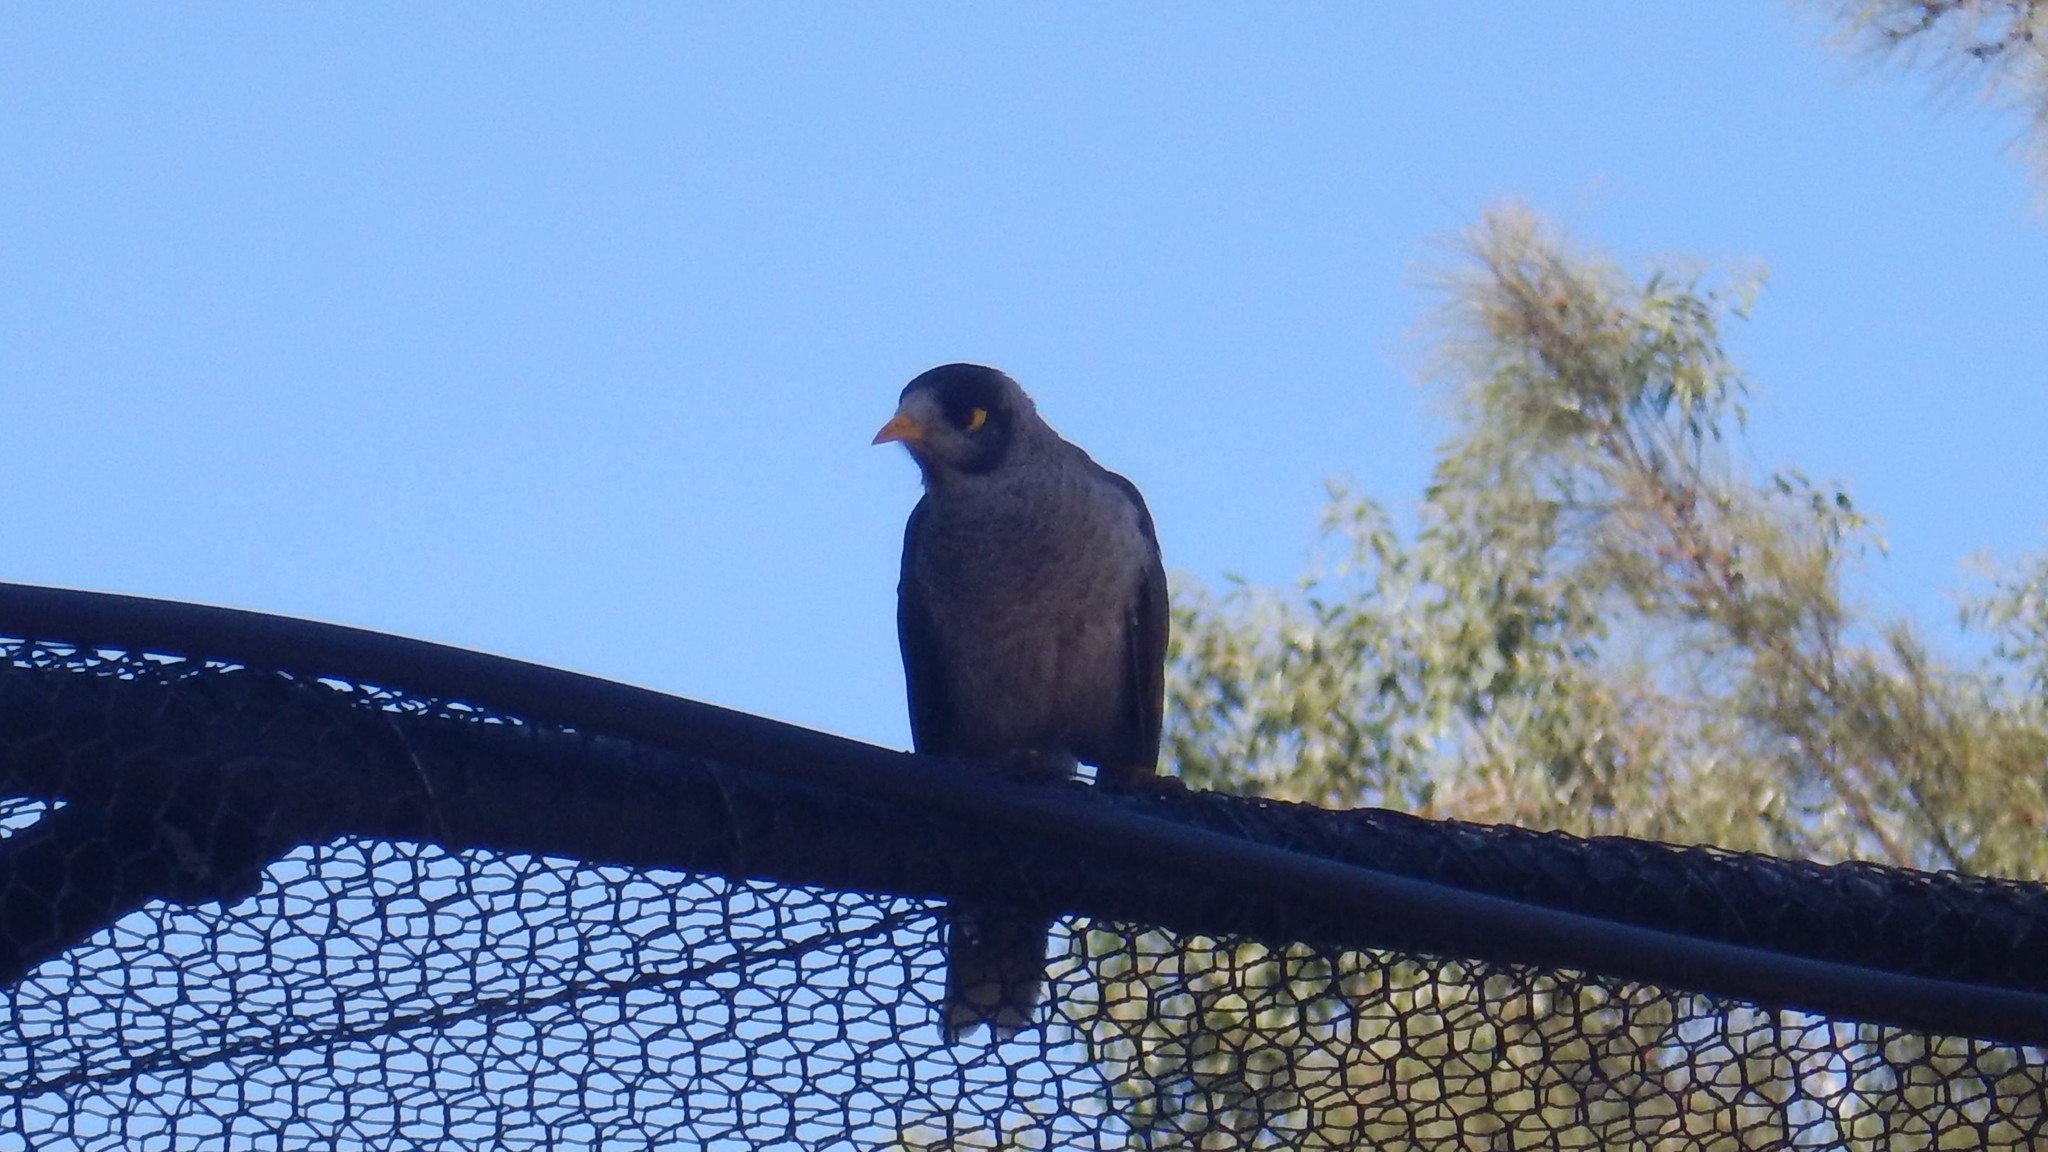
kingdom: Animalia
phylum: Chordata
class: Aves
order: Passeriformes
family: Meliphagidae
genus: Manorina
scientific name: Manorina melanocephala
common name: Noisy miner
